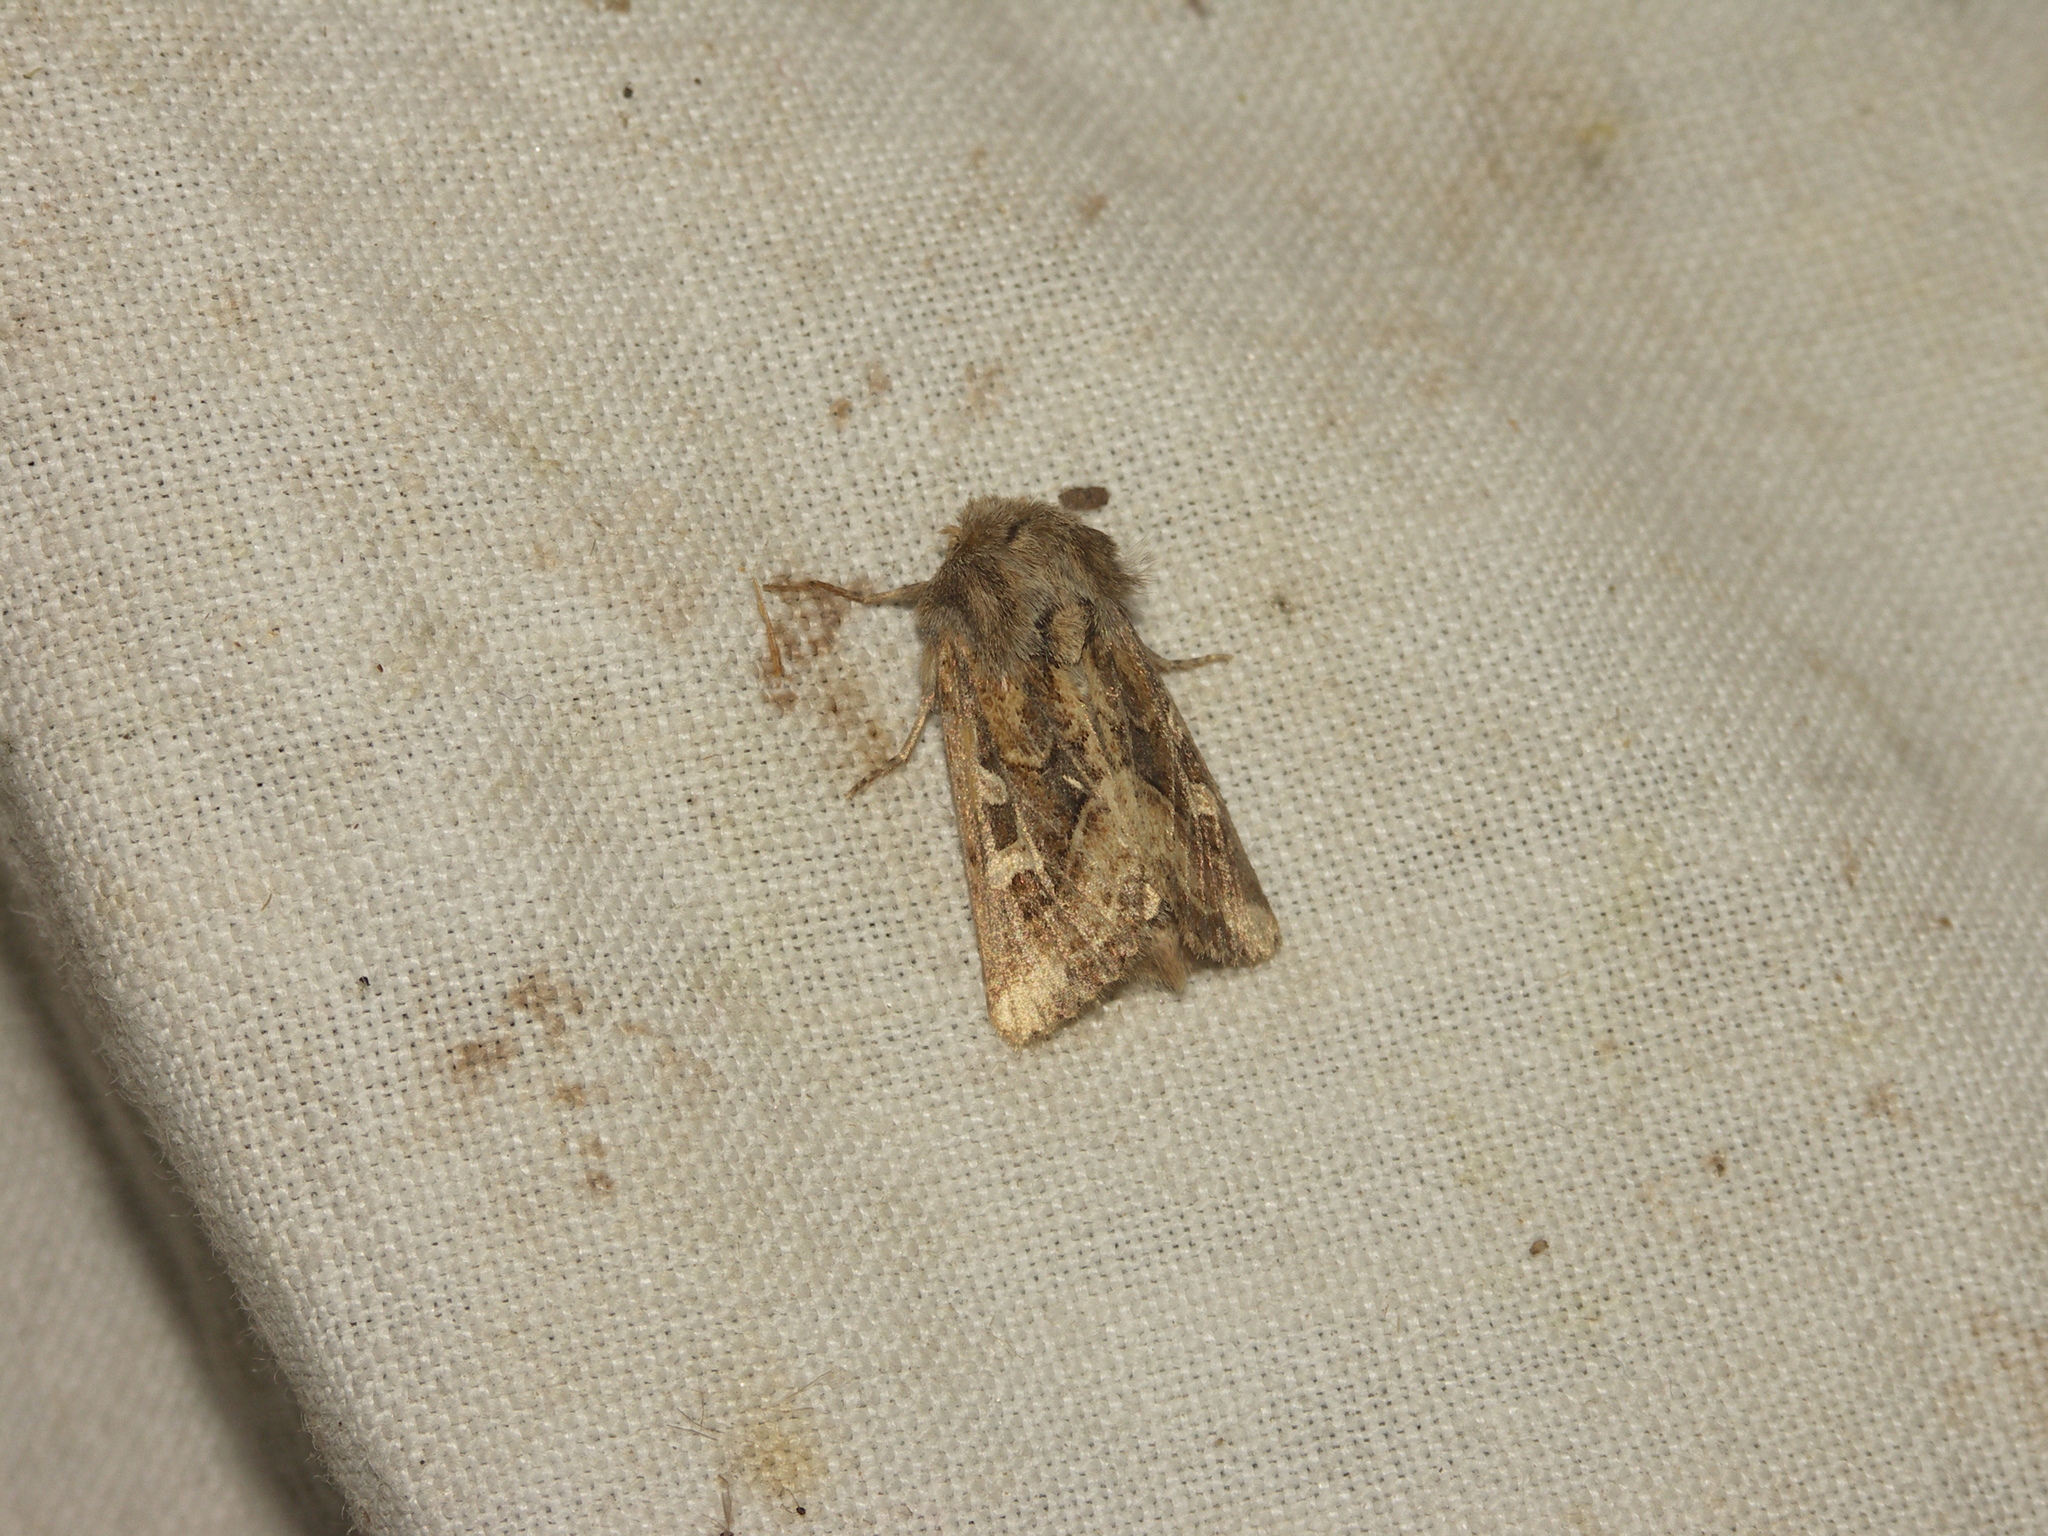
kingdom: Animalia
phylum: Arthropoda
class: Insecta
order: Lepidoptera
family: Noctuidae
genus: Luperina
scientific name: Luperina dumerilii
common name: Dumeril's rustic
